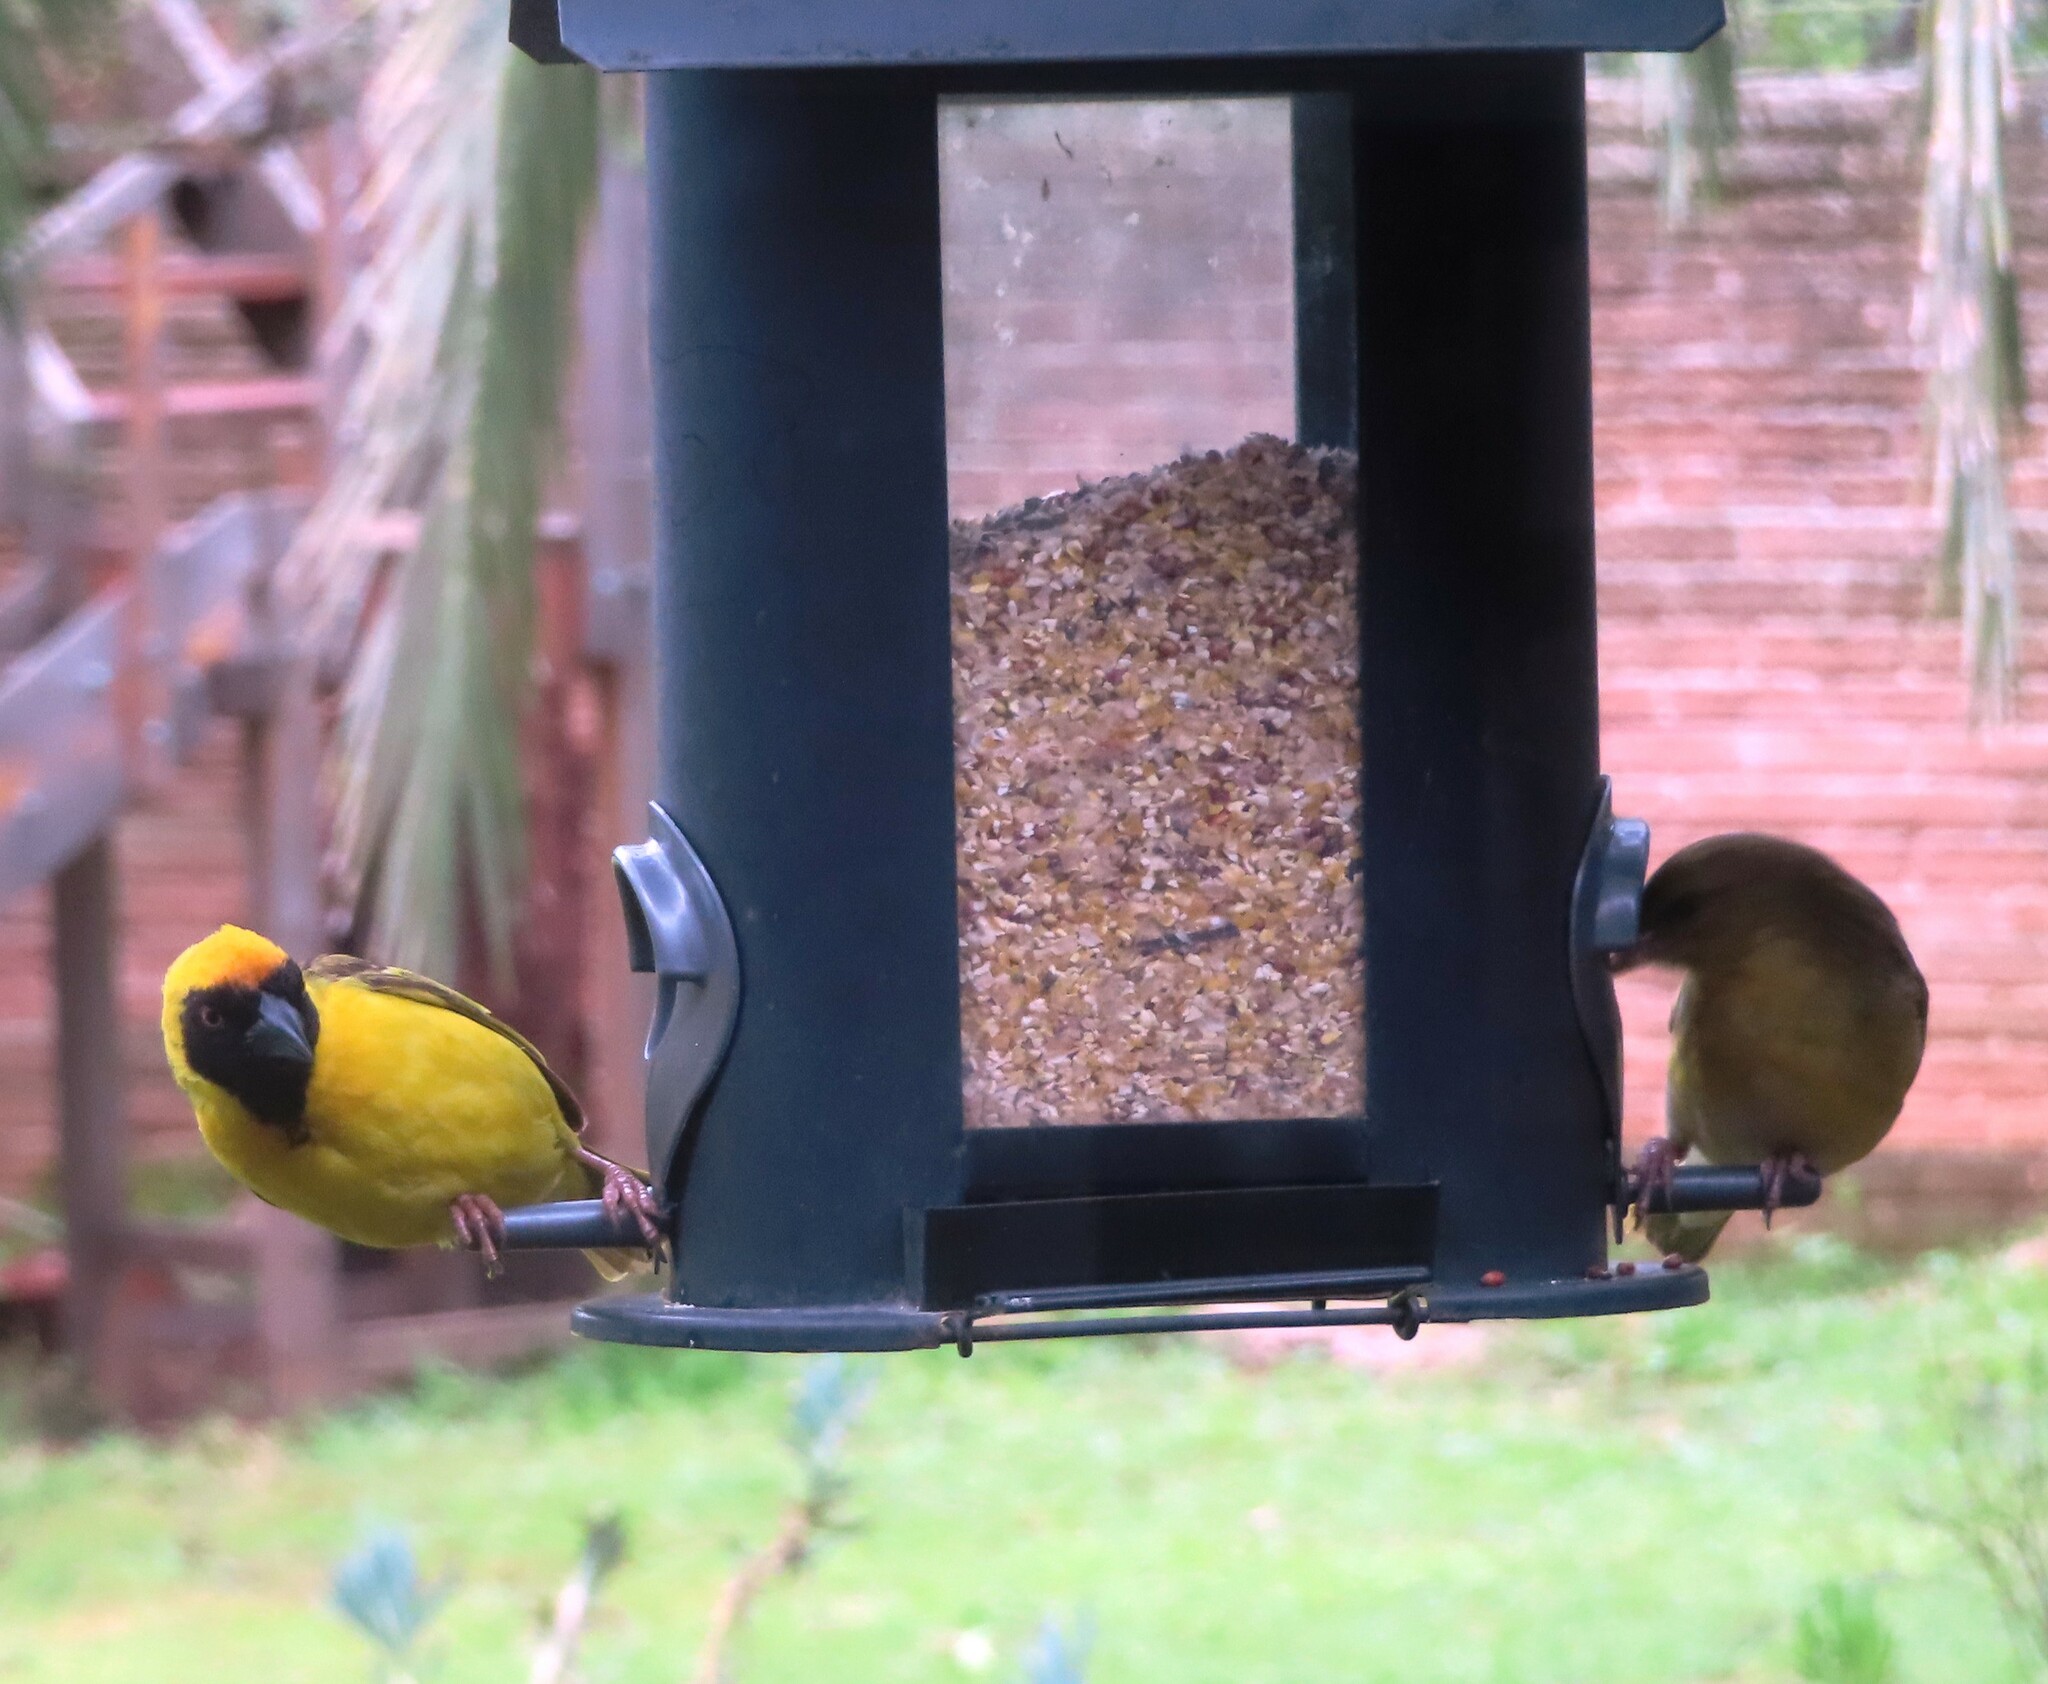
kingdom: Animalia
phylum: Chordata
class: Aves
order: Passeriformes
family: Ploceidae
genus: Ploceus
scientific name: Ploceus velatus
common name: Southern masked weaver
